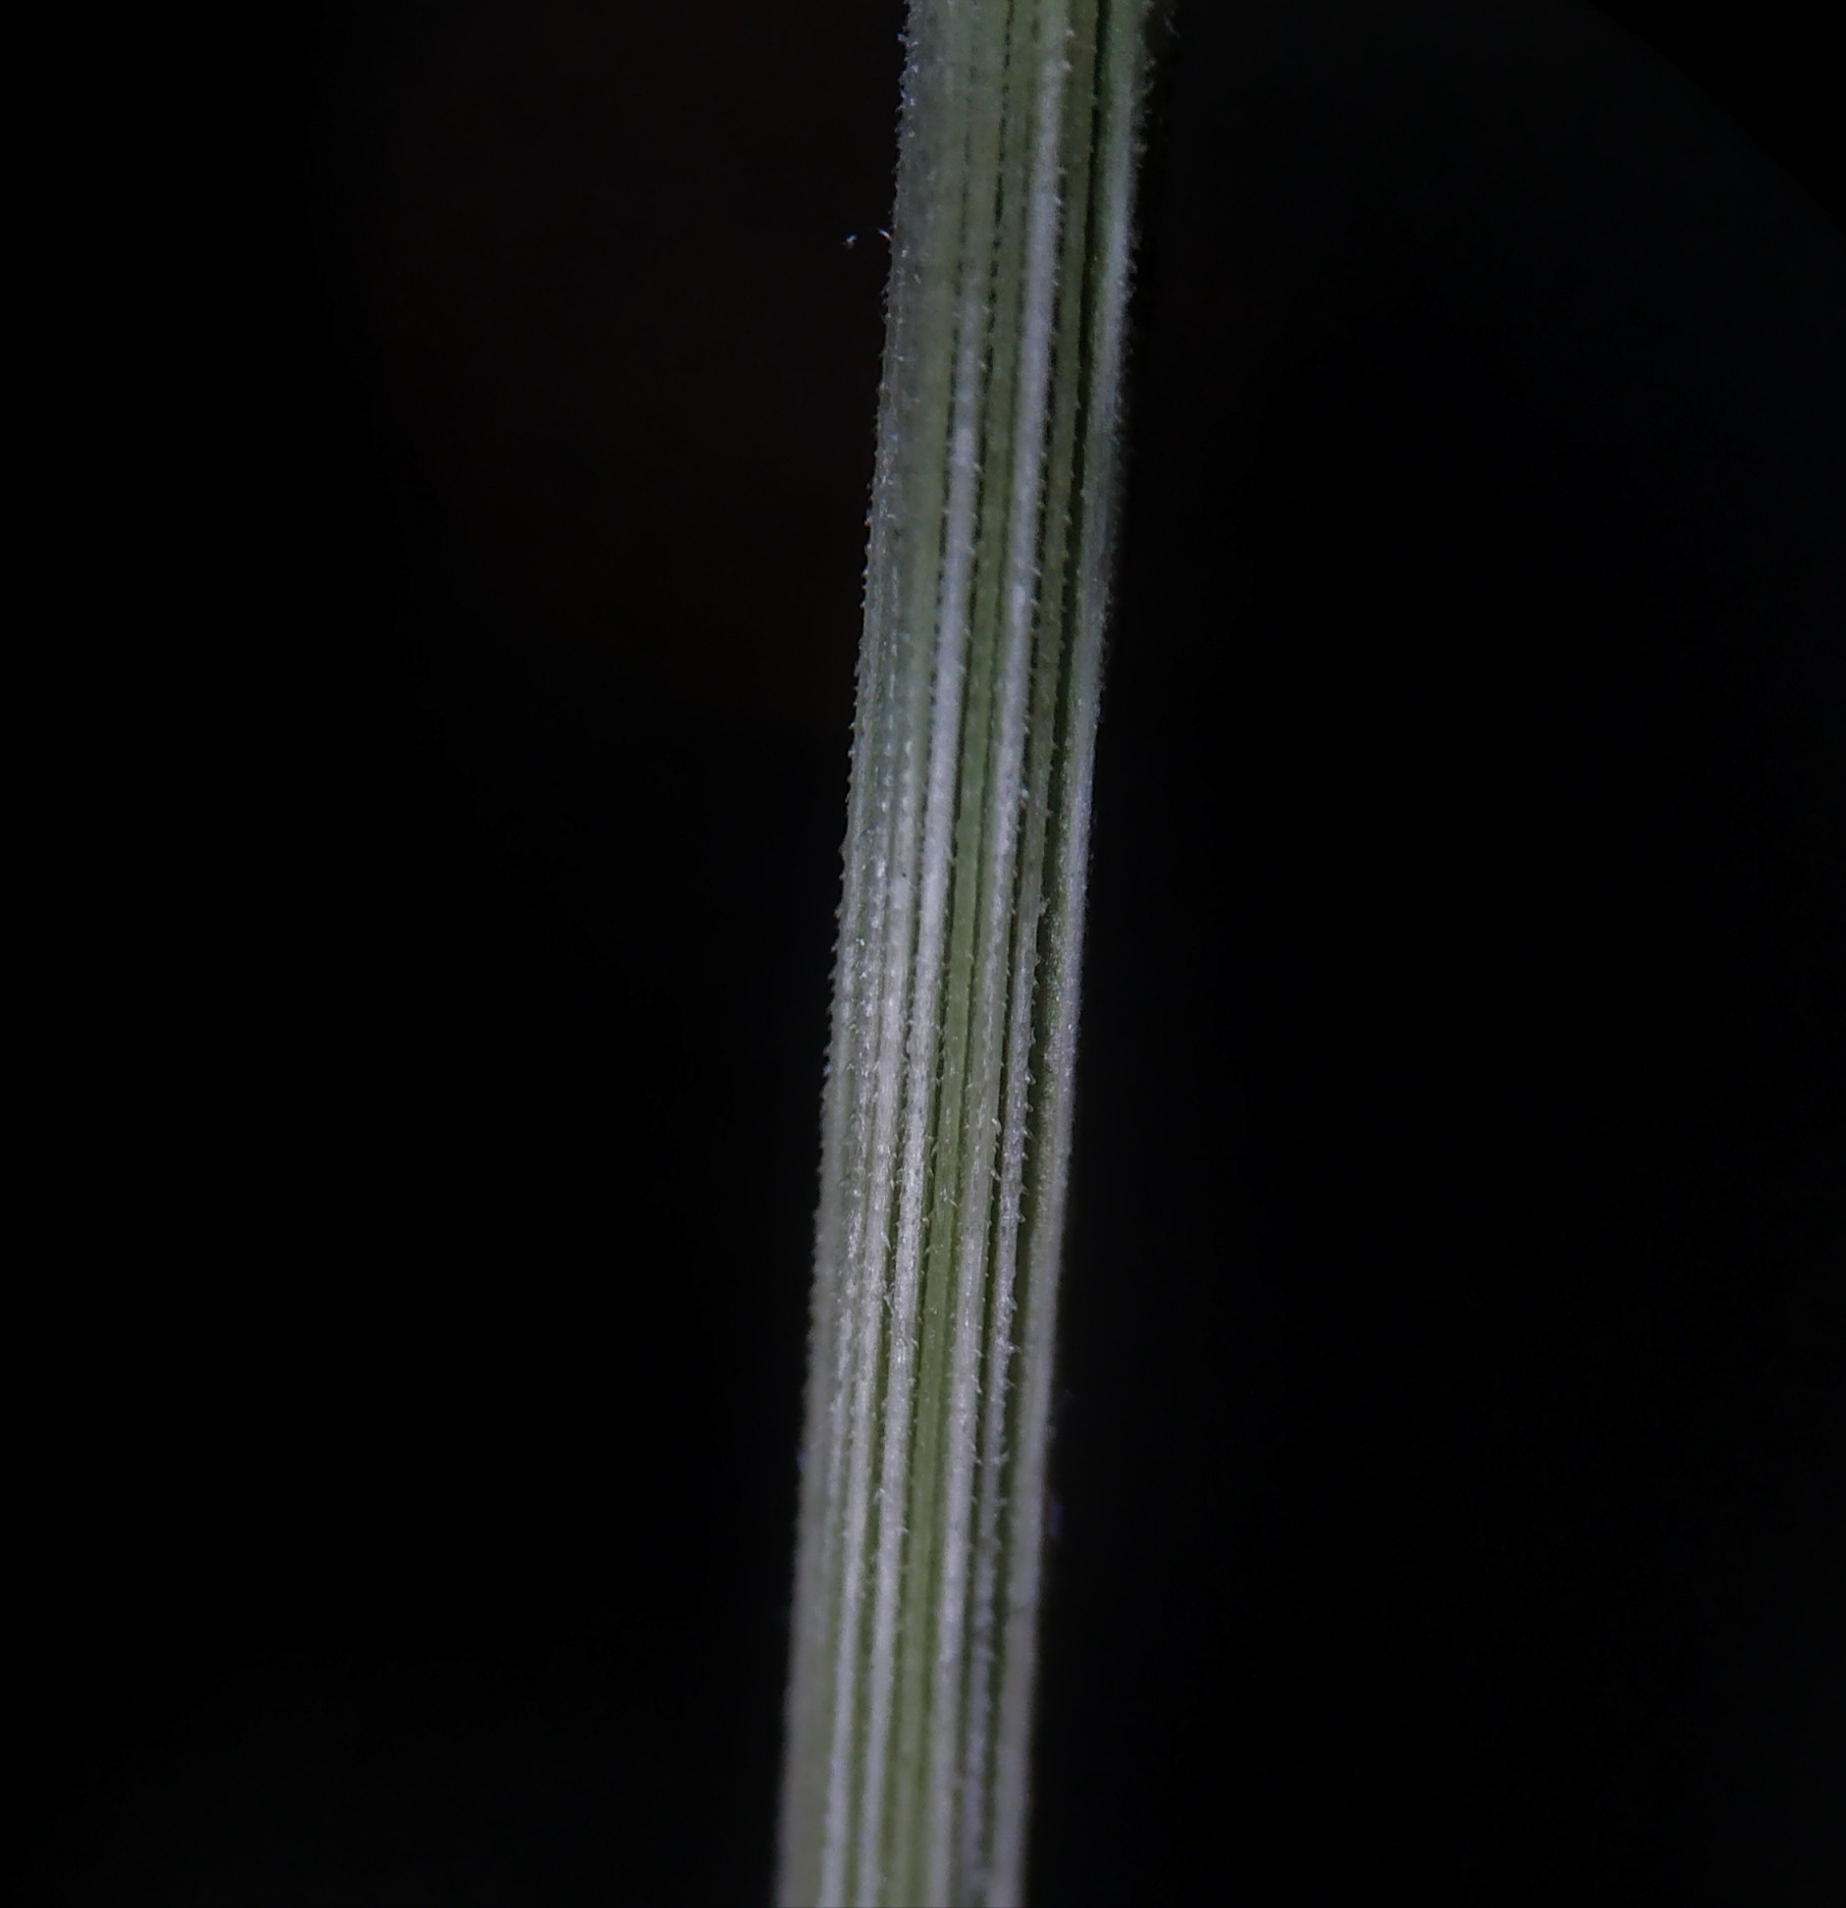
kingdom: Plantae
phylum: Tracheophyta
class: Liliopsida
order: Poales
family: Poaceae
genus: Setaria
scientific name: Setaria verticillata
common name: Hooked bristlegrass
